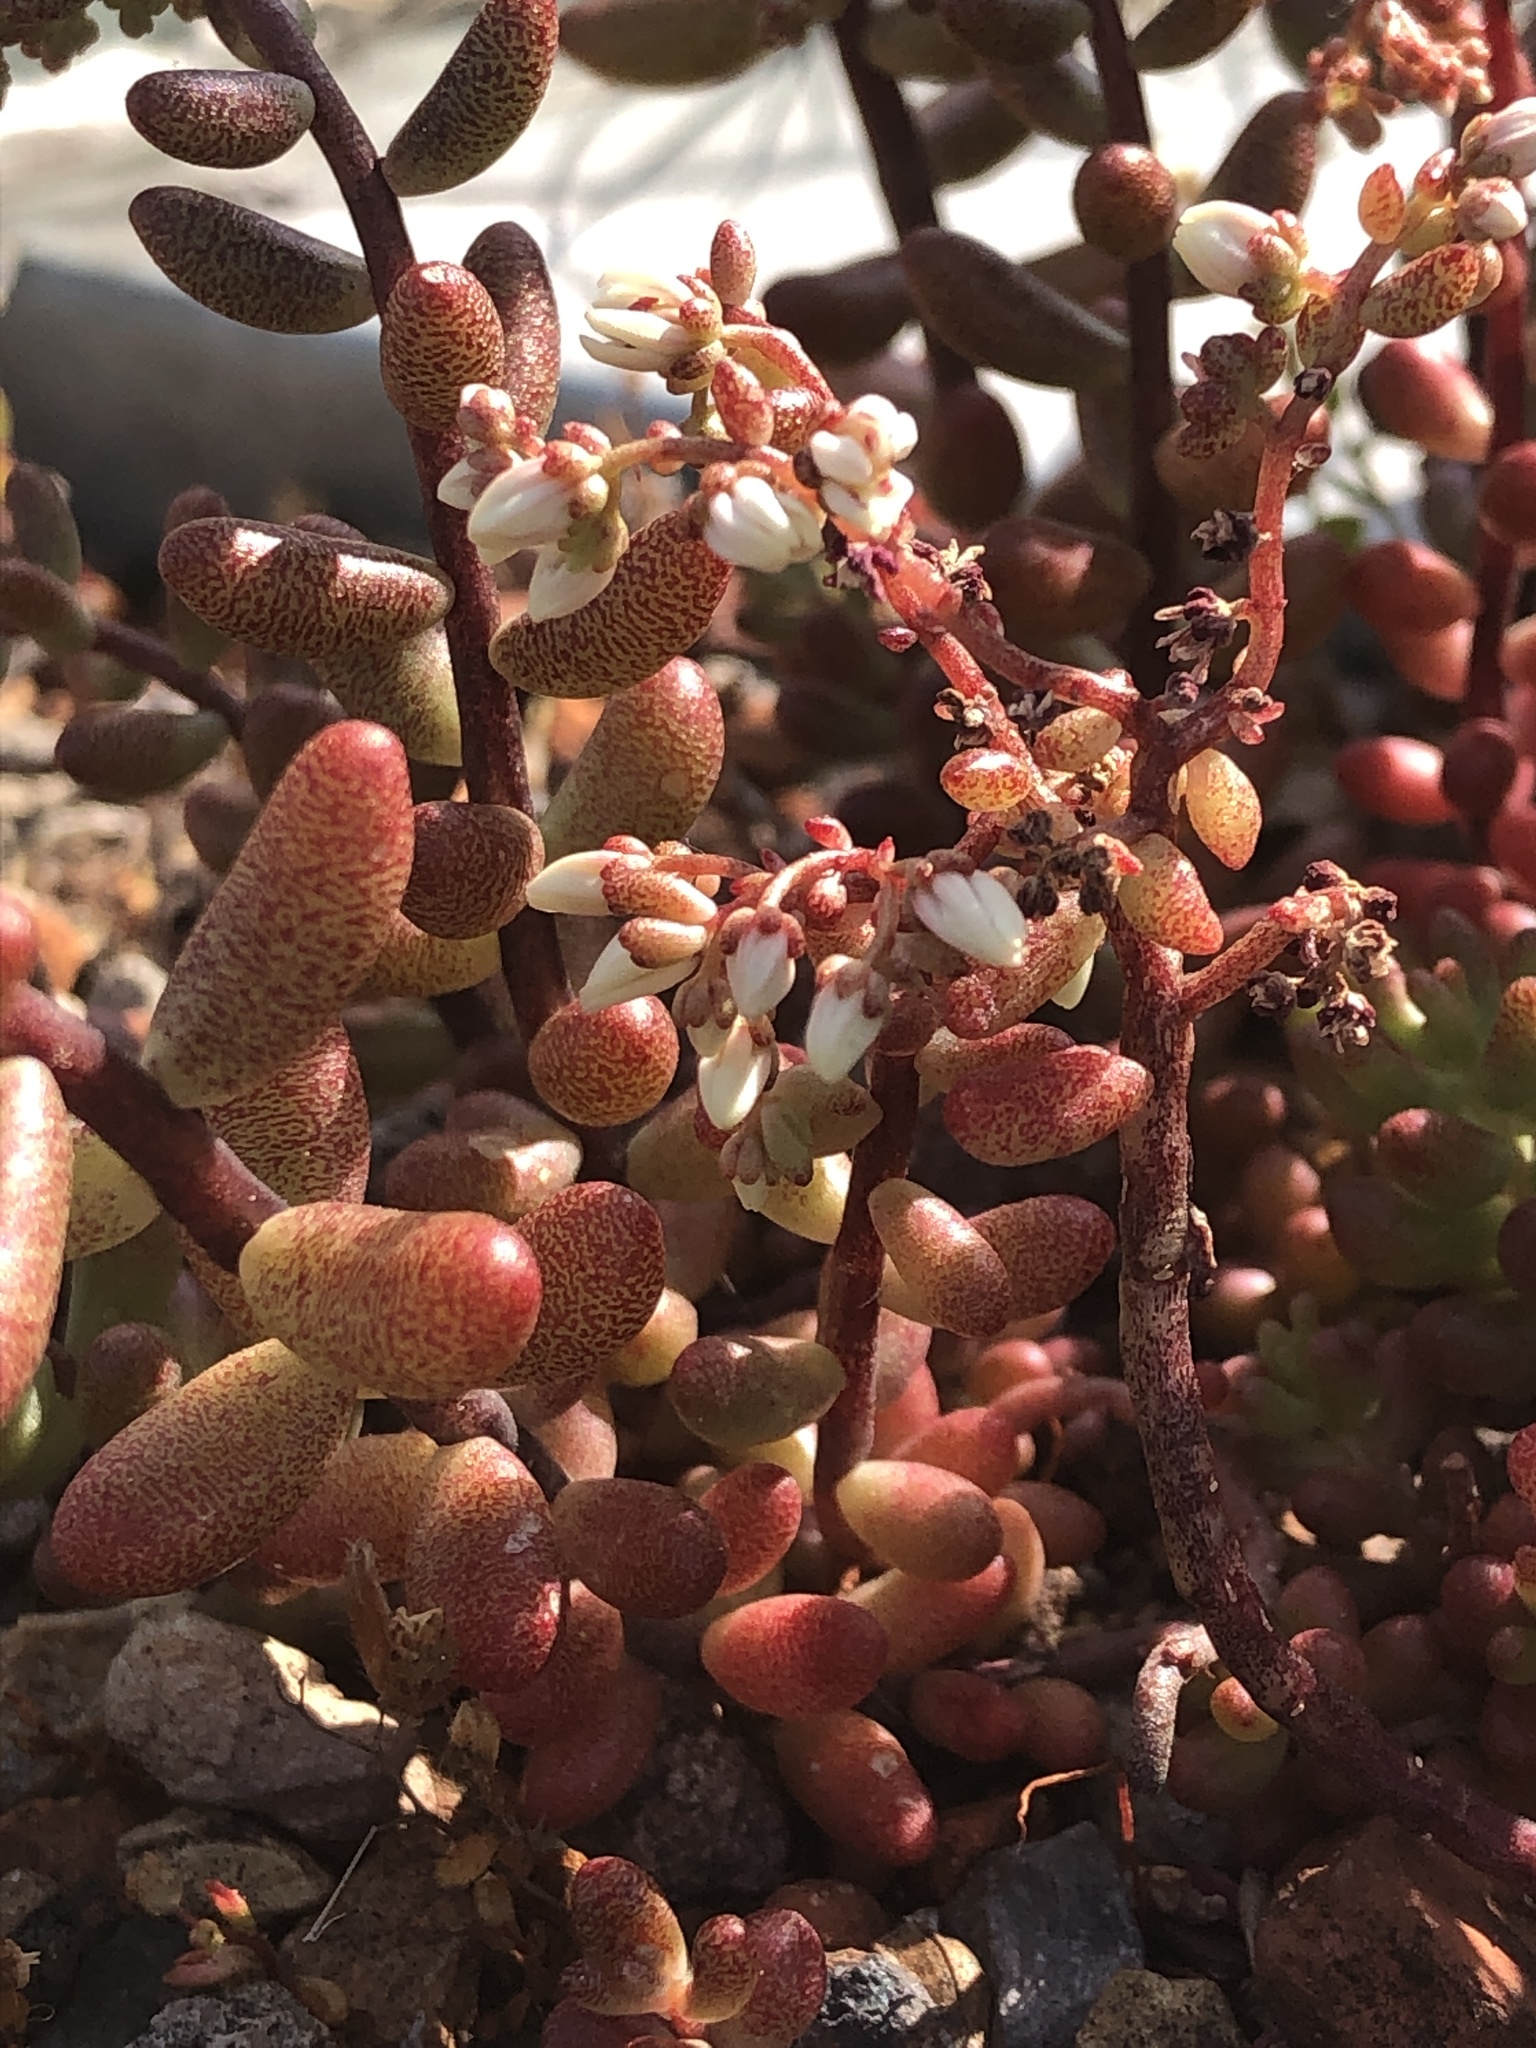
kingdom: Plantae
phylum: Tracheophyta
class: Magnoliopsida
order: Saxifragales
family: Crassulaceae
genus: Sedum
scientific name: Sedum album
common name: White stonecrop
